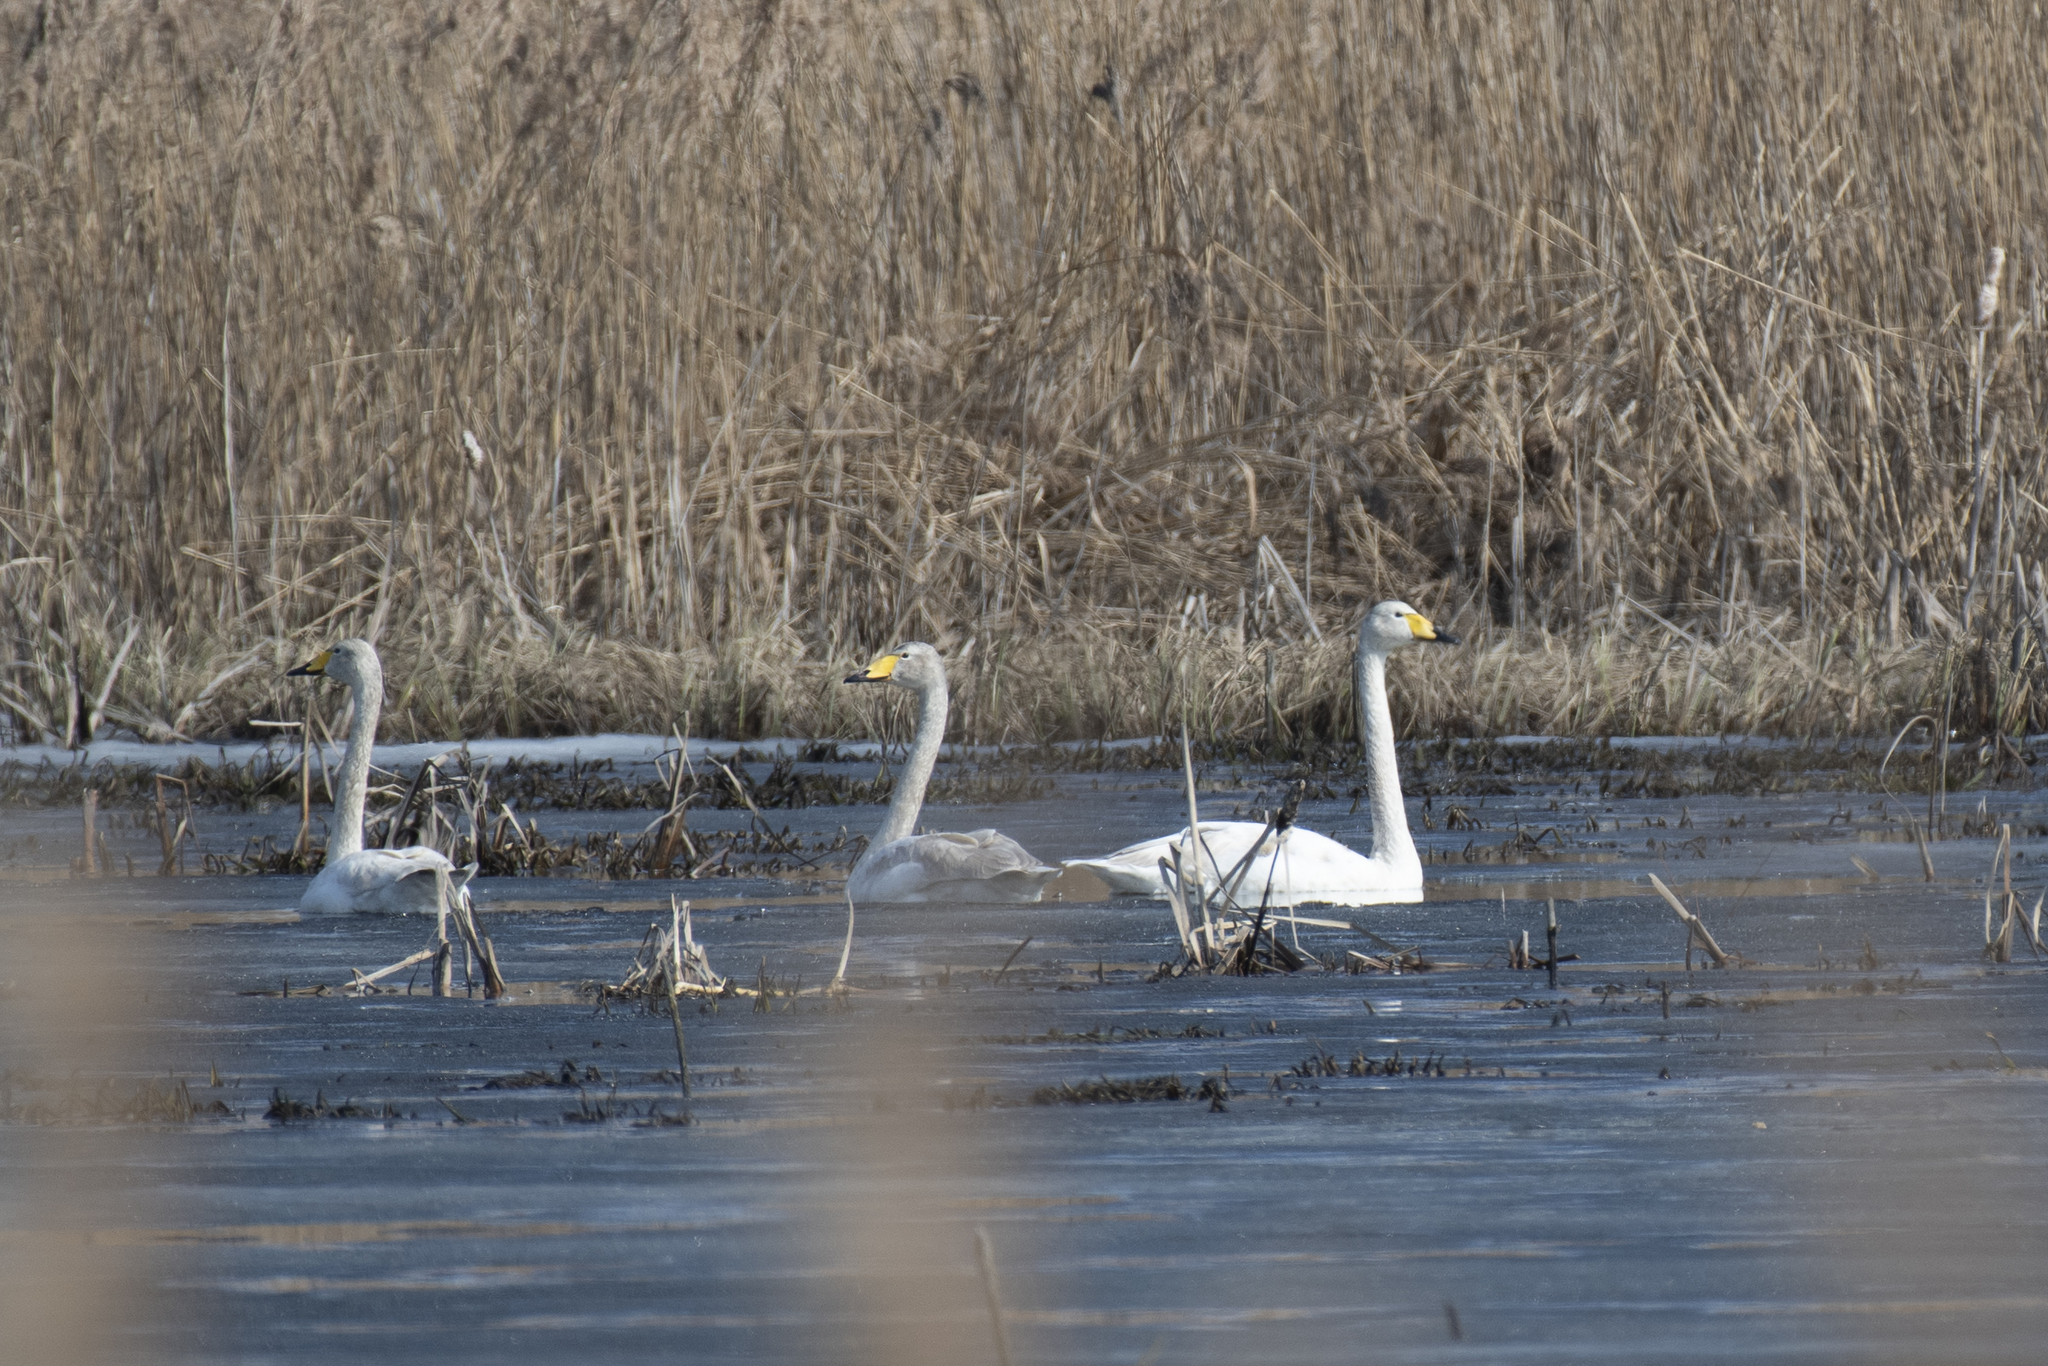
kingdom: Animalia
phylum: Chordata
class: Aves
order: Anseriformes
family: Anatidae
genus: Cygnus
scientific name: Cygnus cygnus
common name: Whooper swan
